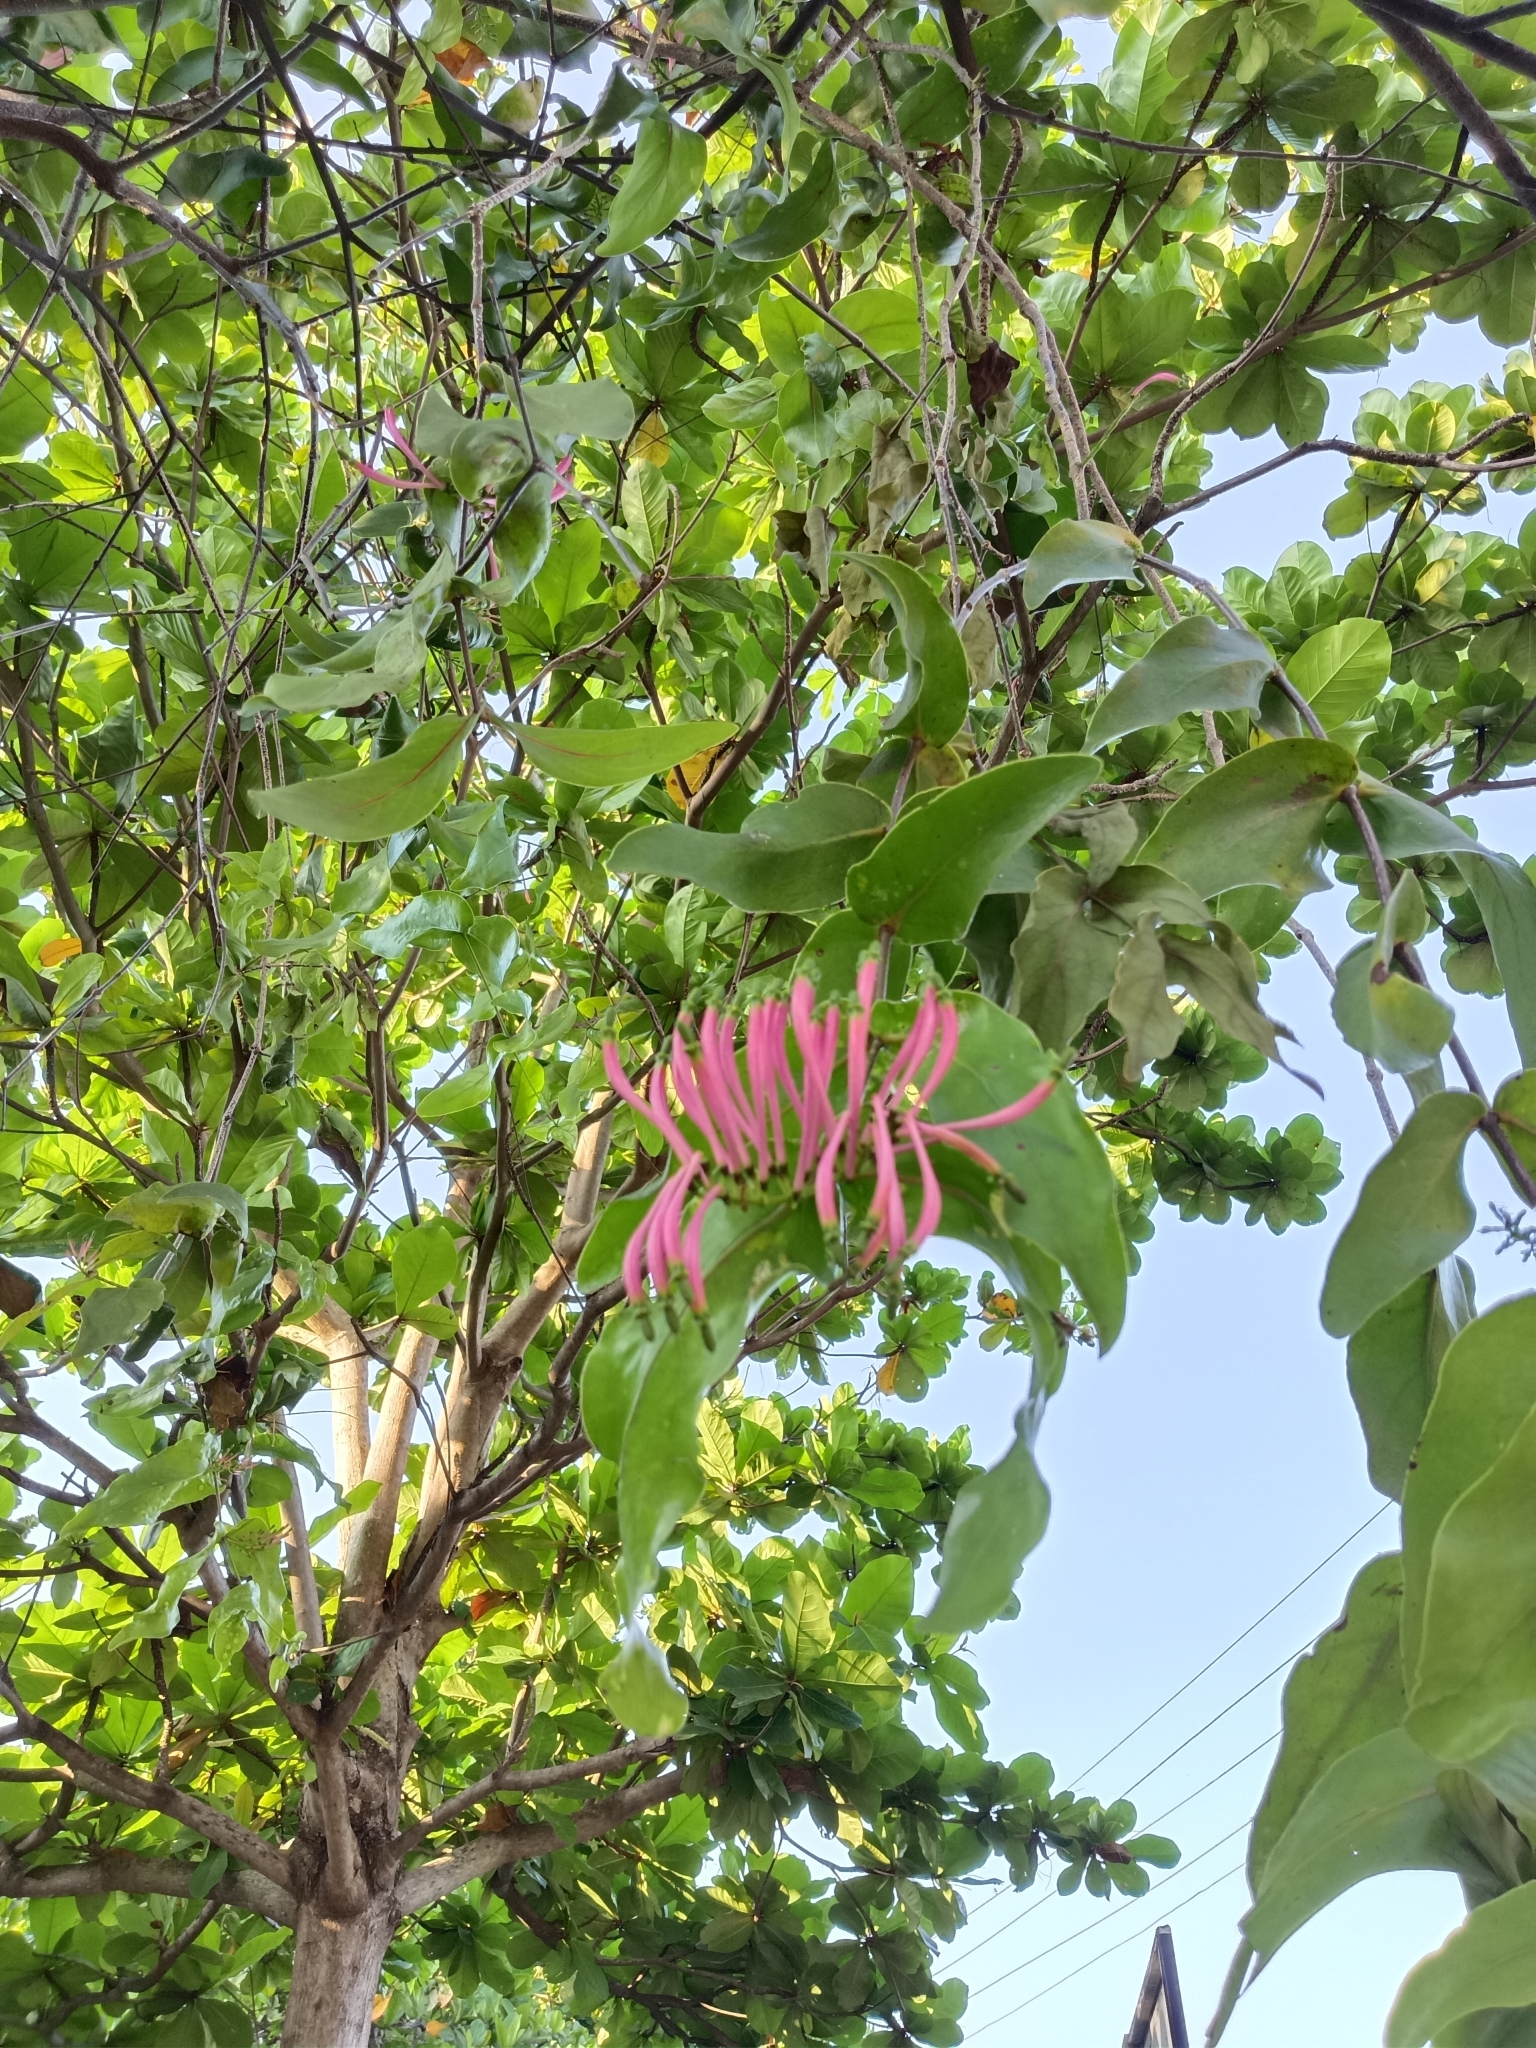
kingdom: Plantae
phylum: Tracheophyta
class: Magnoliopsida
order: Santalales
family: Loranthaceae
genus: Dendrophthoe
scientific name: Dendrophthoe falcata
